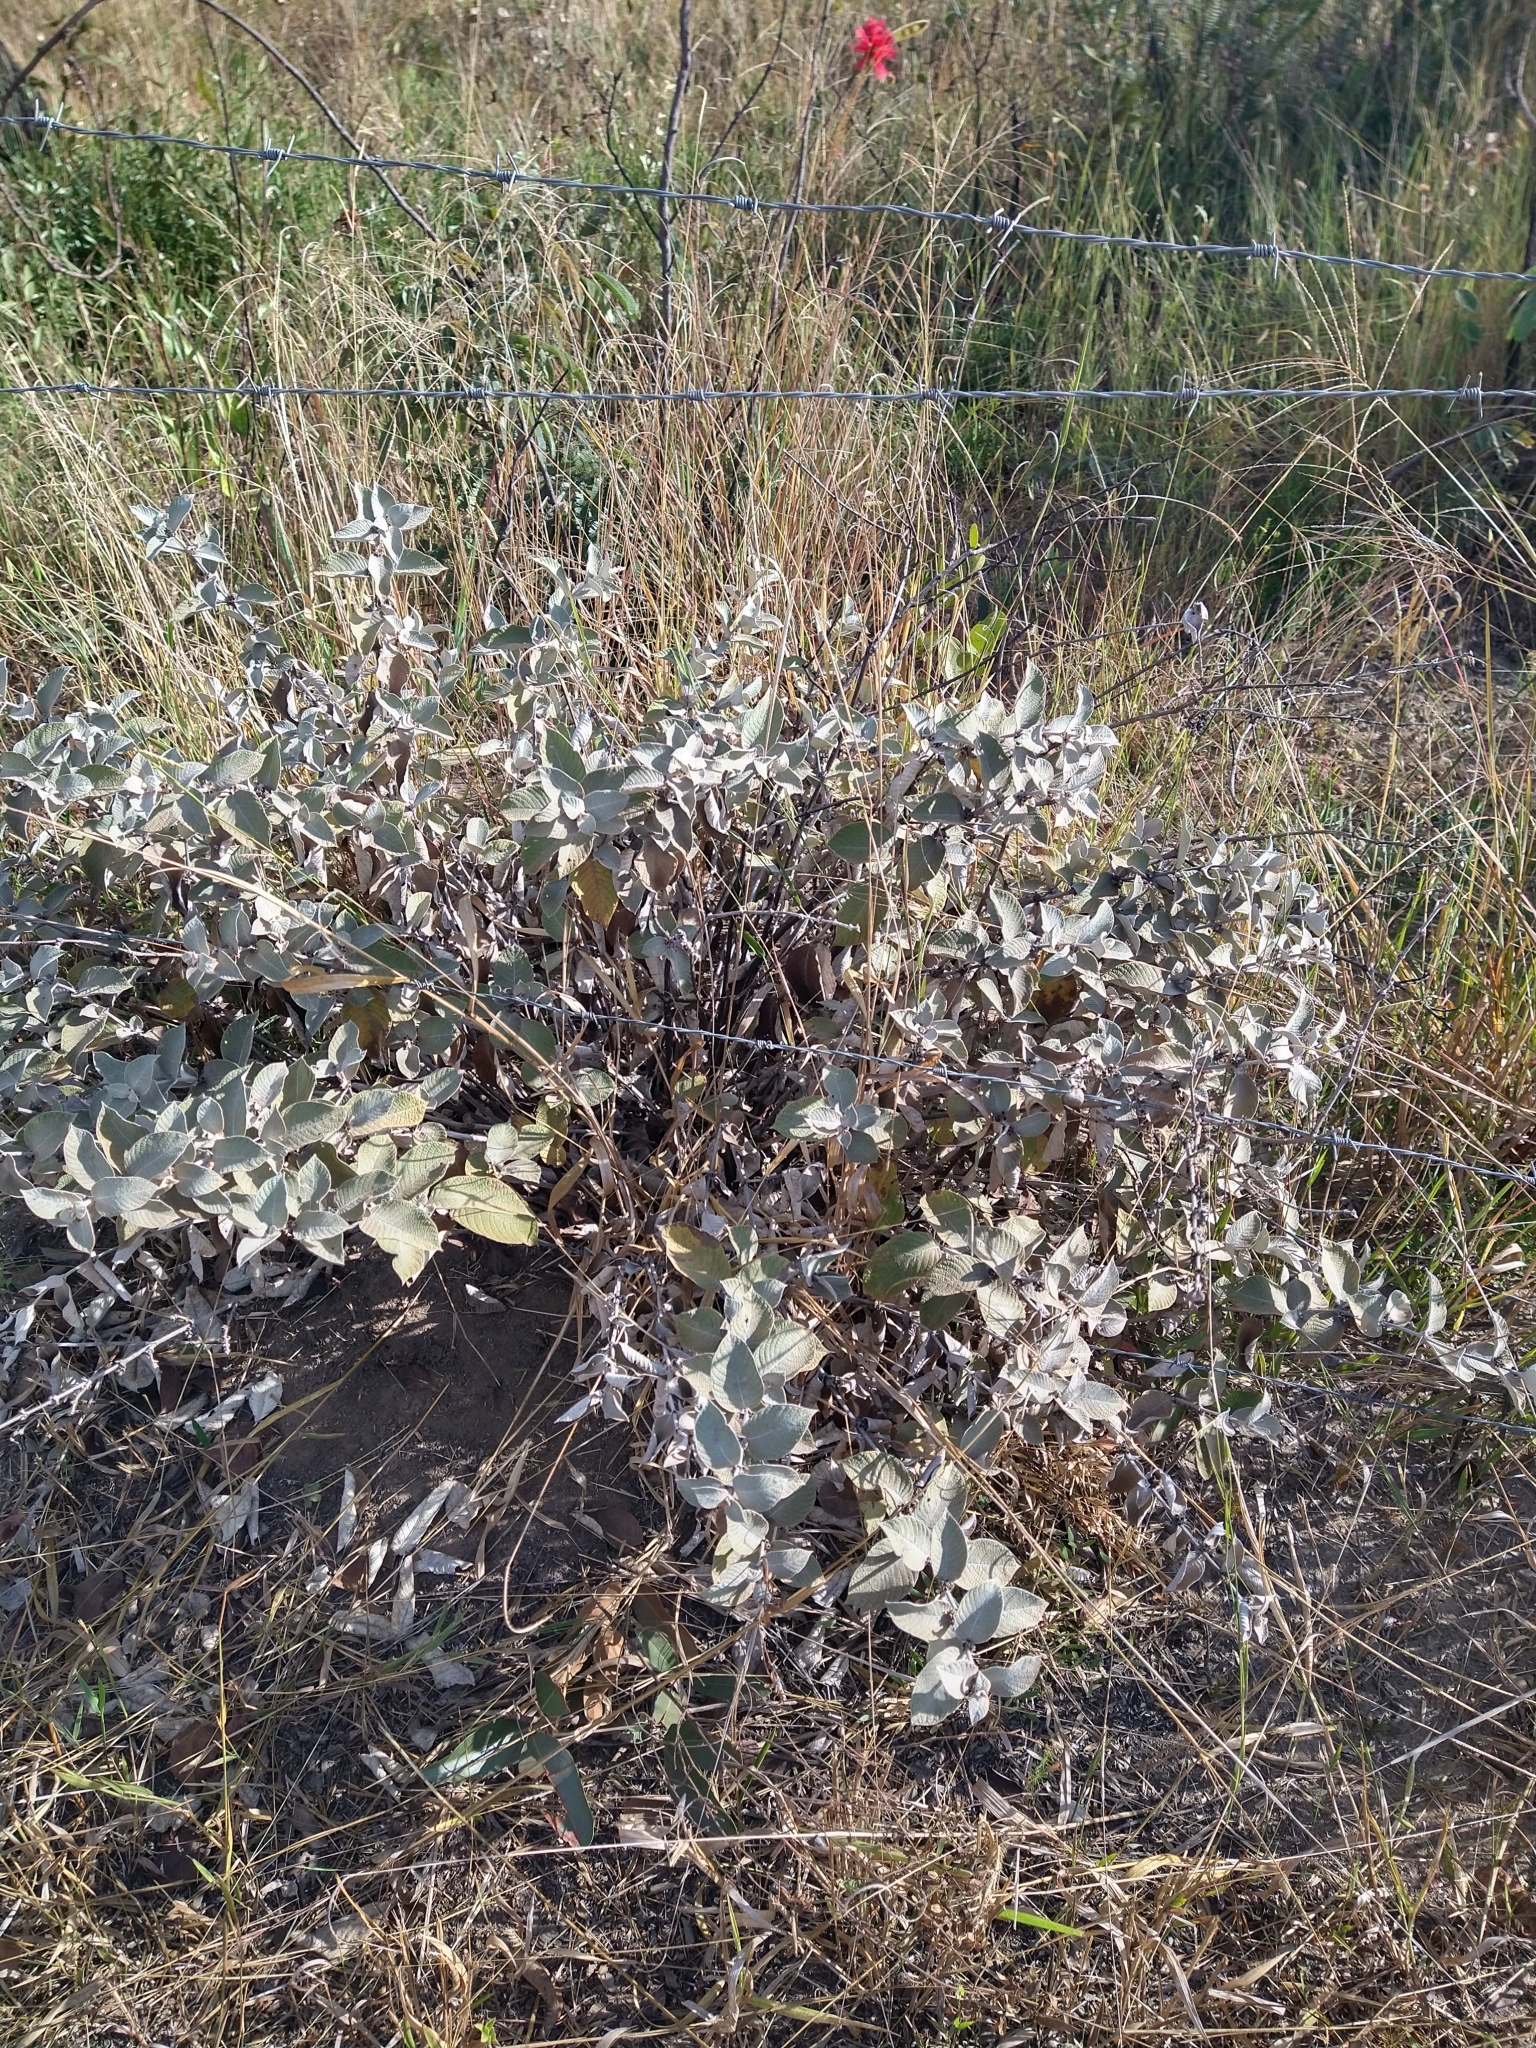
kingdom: Plantae
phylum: Tracheophyta
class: Magnoliopsida
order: Gentianales
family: Rubiaceae
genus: Sabicea
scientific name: Sabicea brasiliensis
